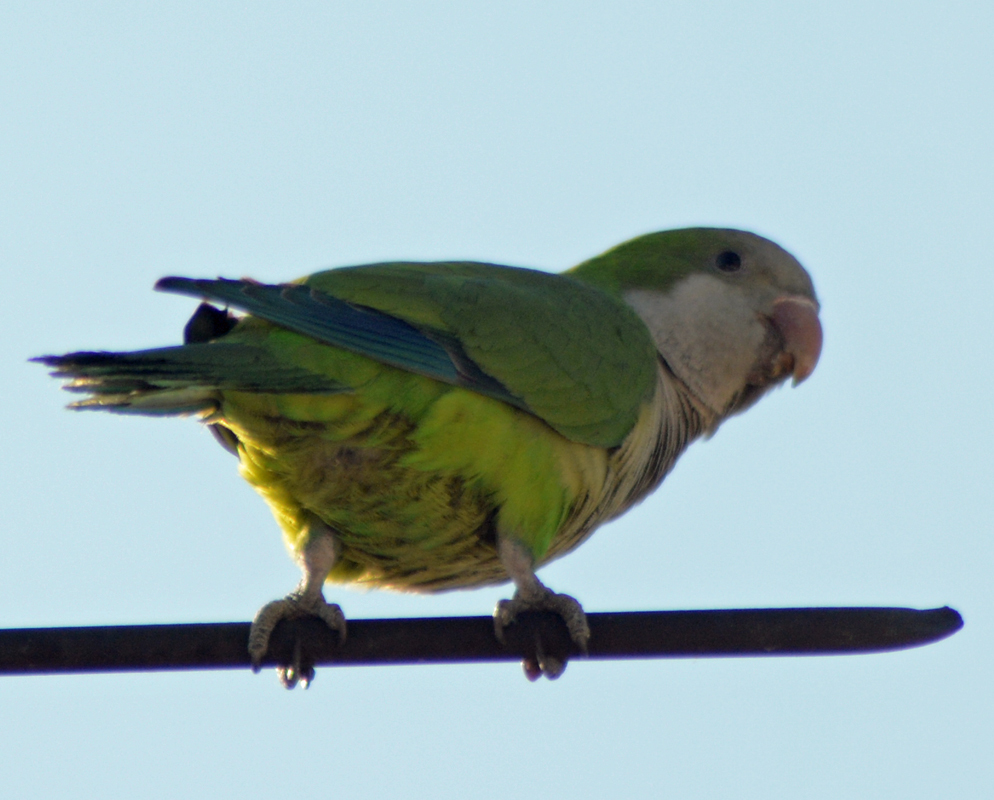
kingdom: Animalia
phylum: Chordata
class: Aves
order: Psittaciformes
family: Psittacidae
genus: Myiopsitta
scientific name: Myiopsitta monachus
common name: Monk parakeet
